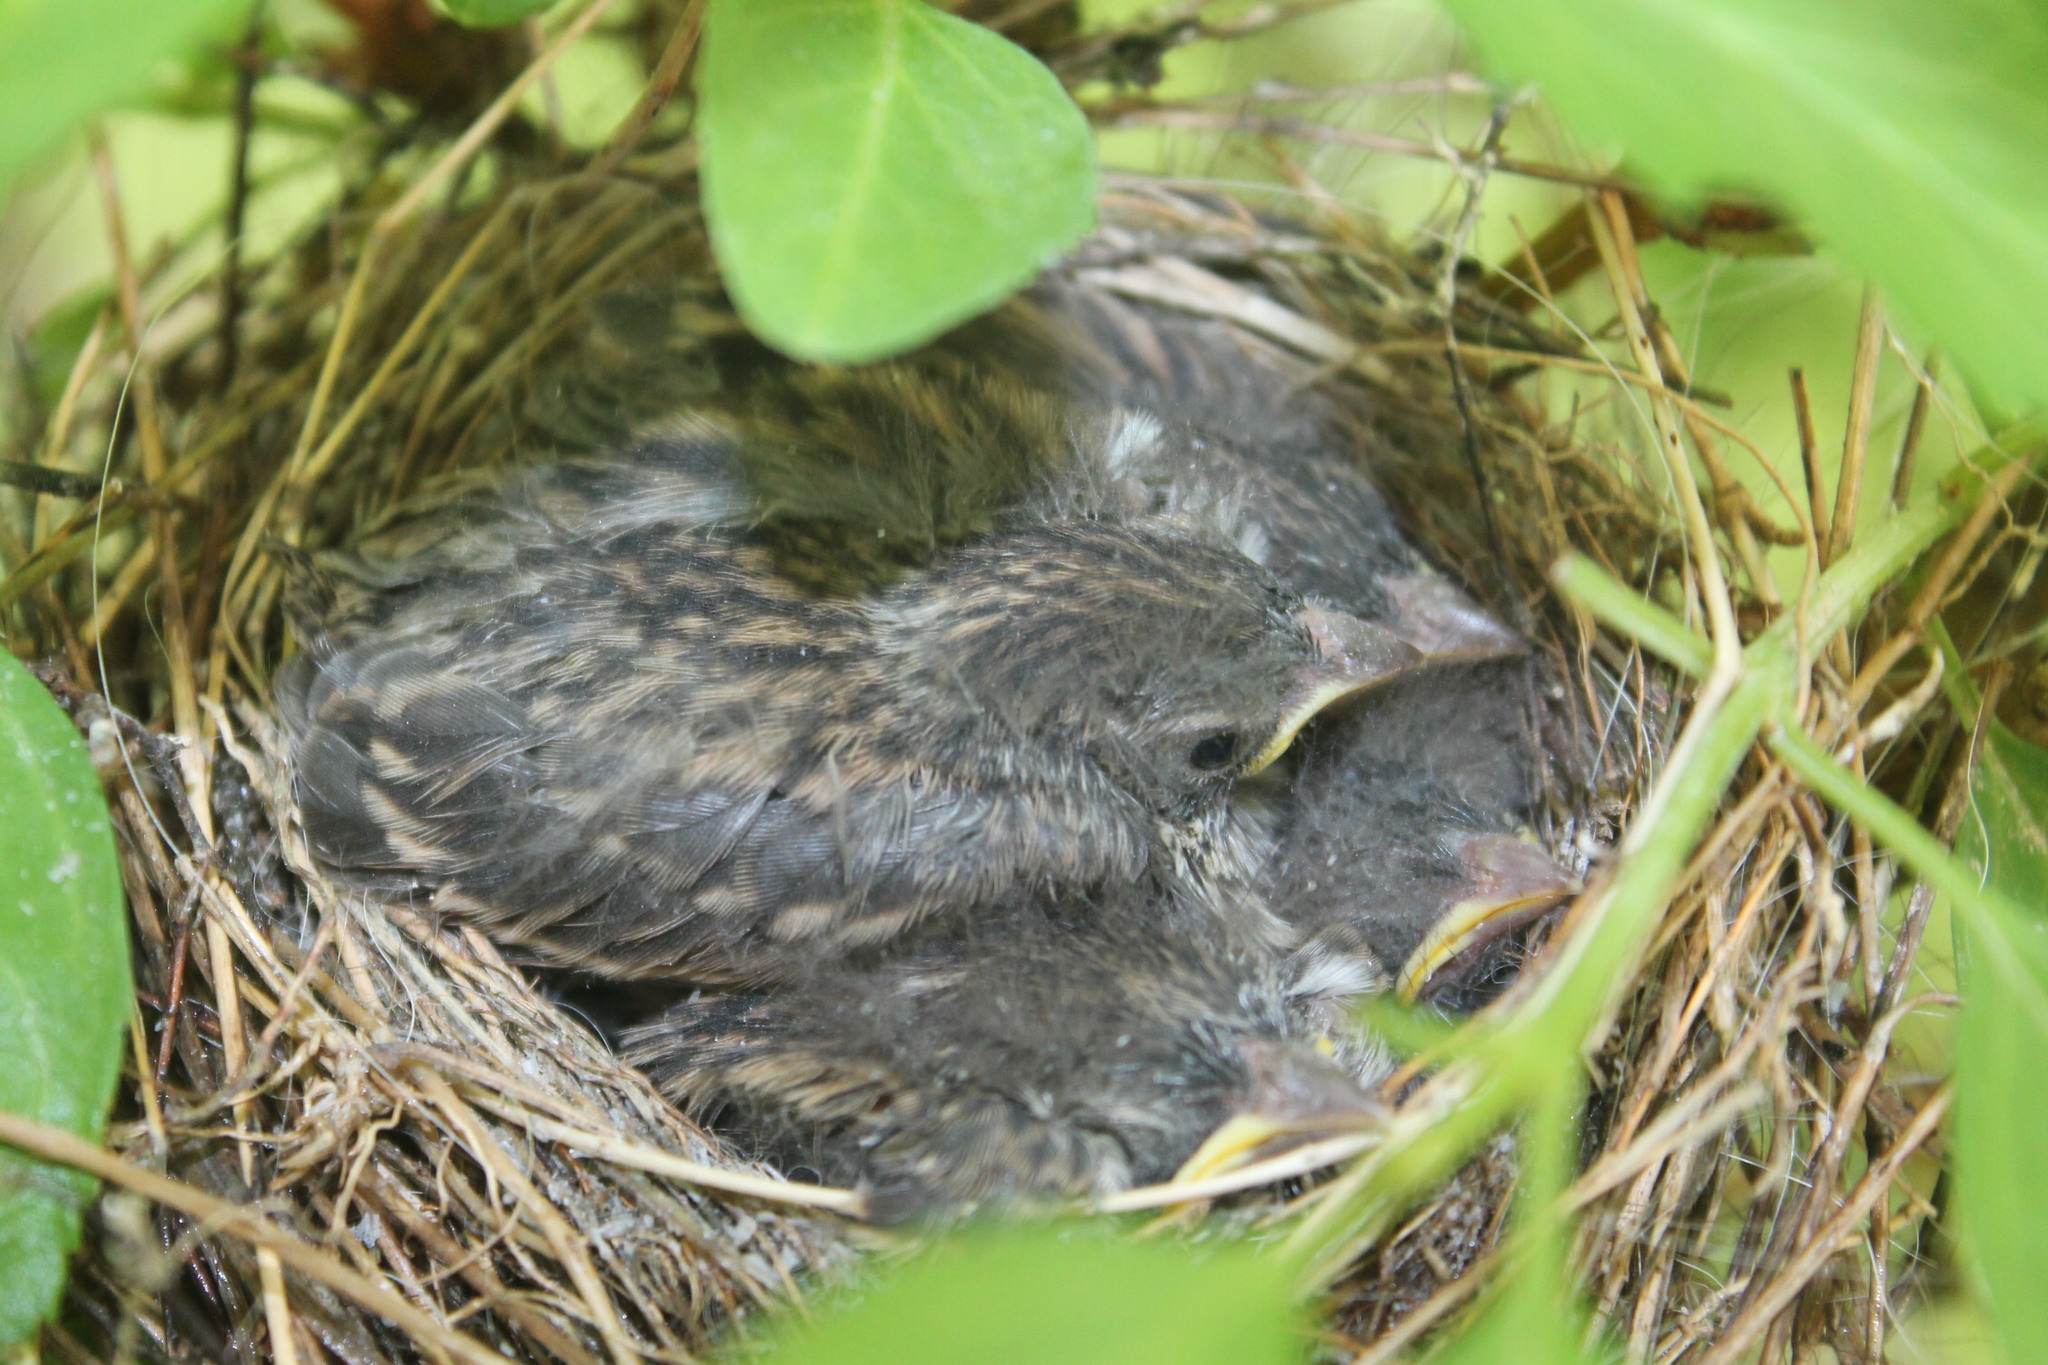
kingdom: Animalia
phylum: Chordata
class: Aves
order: Passeriformes
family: Passerellidae
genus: Spizella
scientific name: Spizella passerina
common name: Chipping sparrow
